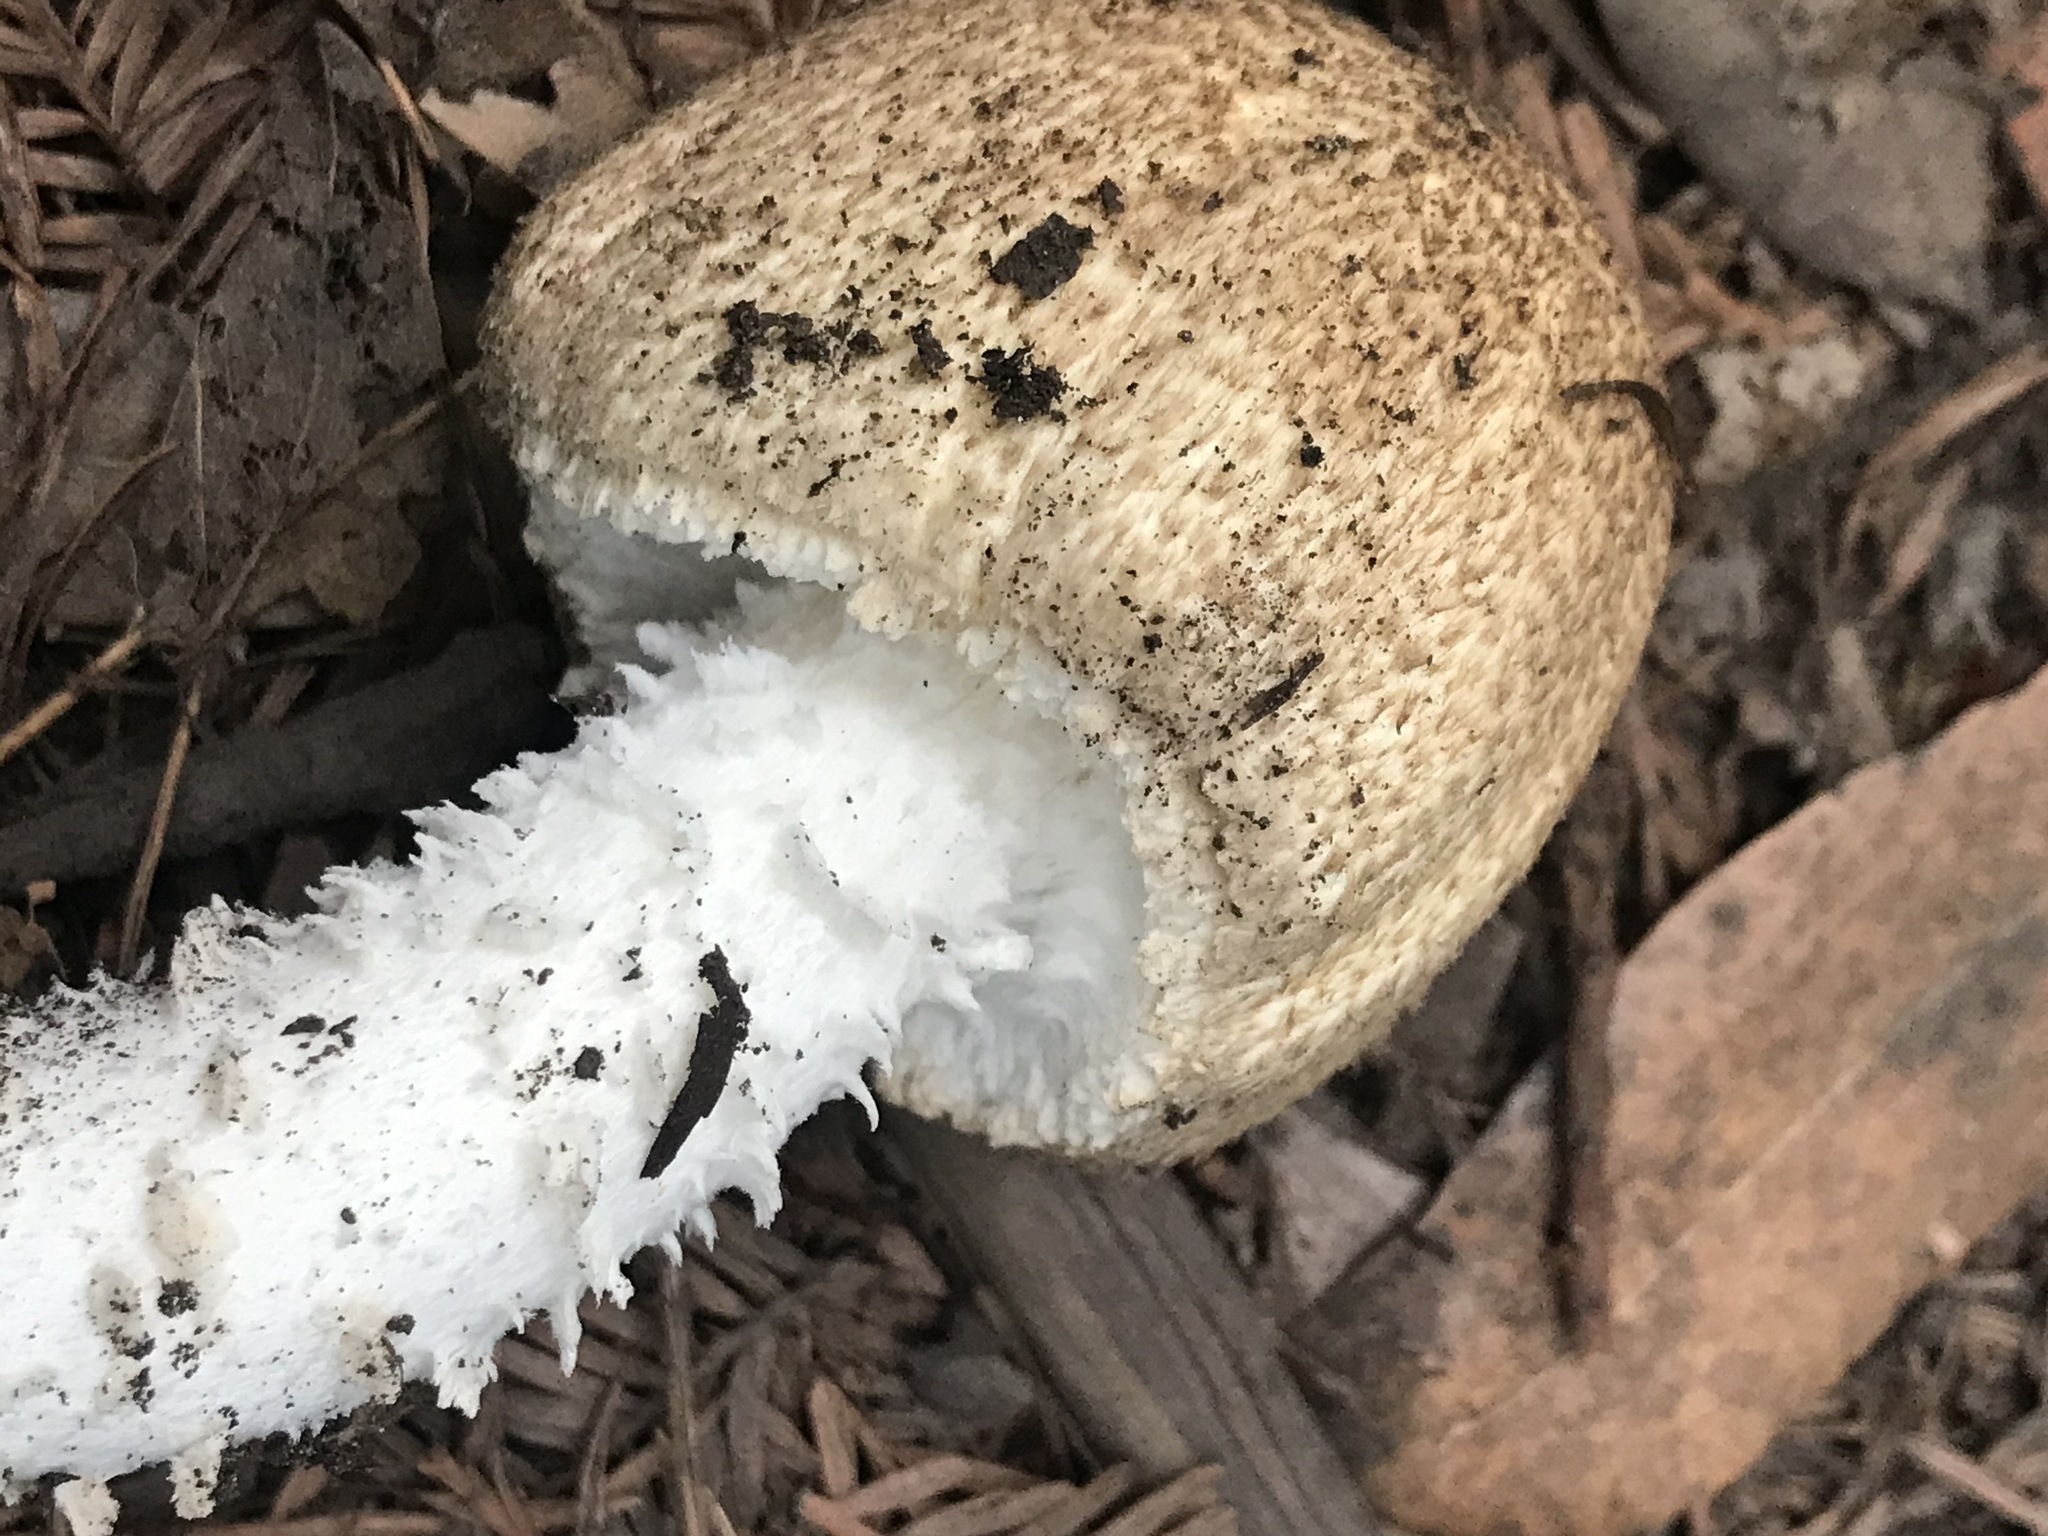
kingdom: Fungi
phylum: Basidiomycota
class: Agaricomycetes
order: Agaricales
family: Agaricaceae
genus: Agaricus
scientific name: Agaricus augustus
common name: Prince
